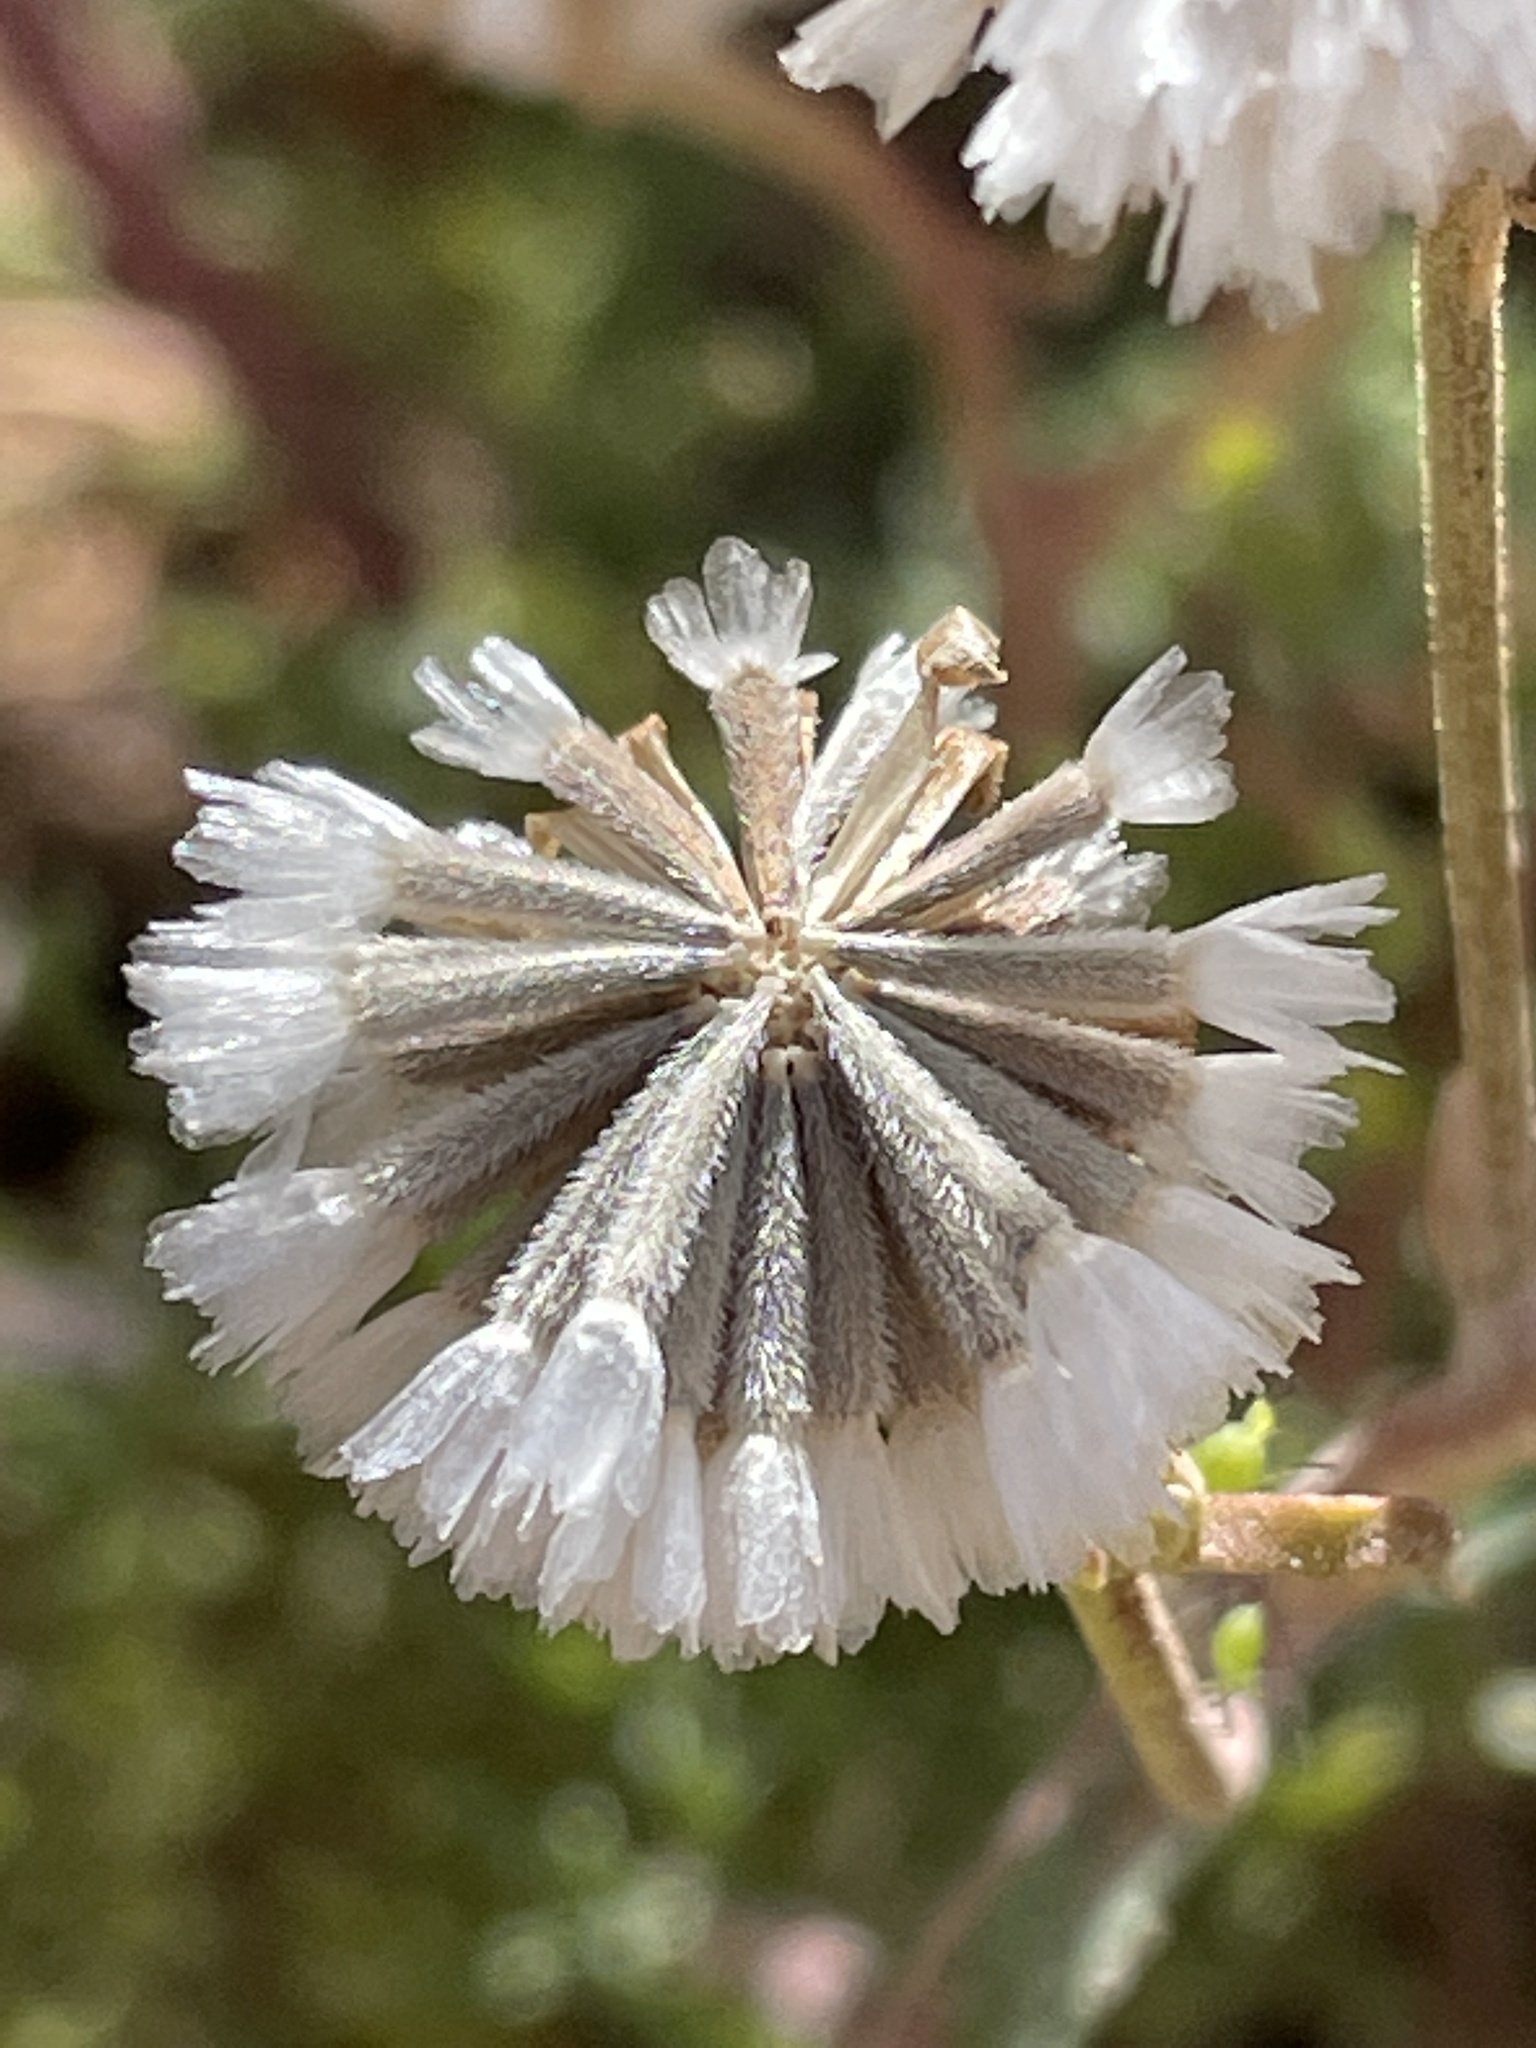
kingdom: Plantae
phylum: Tracheophyta
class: Magnoliopsida
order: Asterales
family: Asteraceae
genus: Chaenactis
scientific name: Chaenactis douglasii
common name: Hoary pincushion
